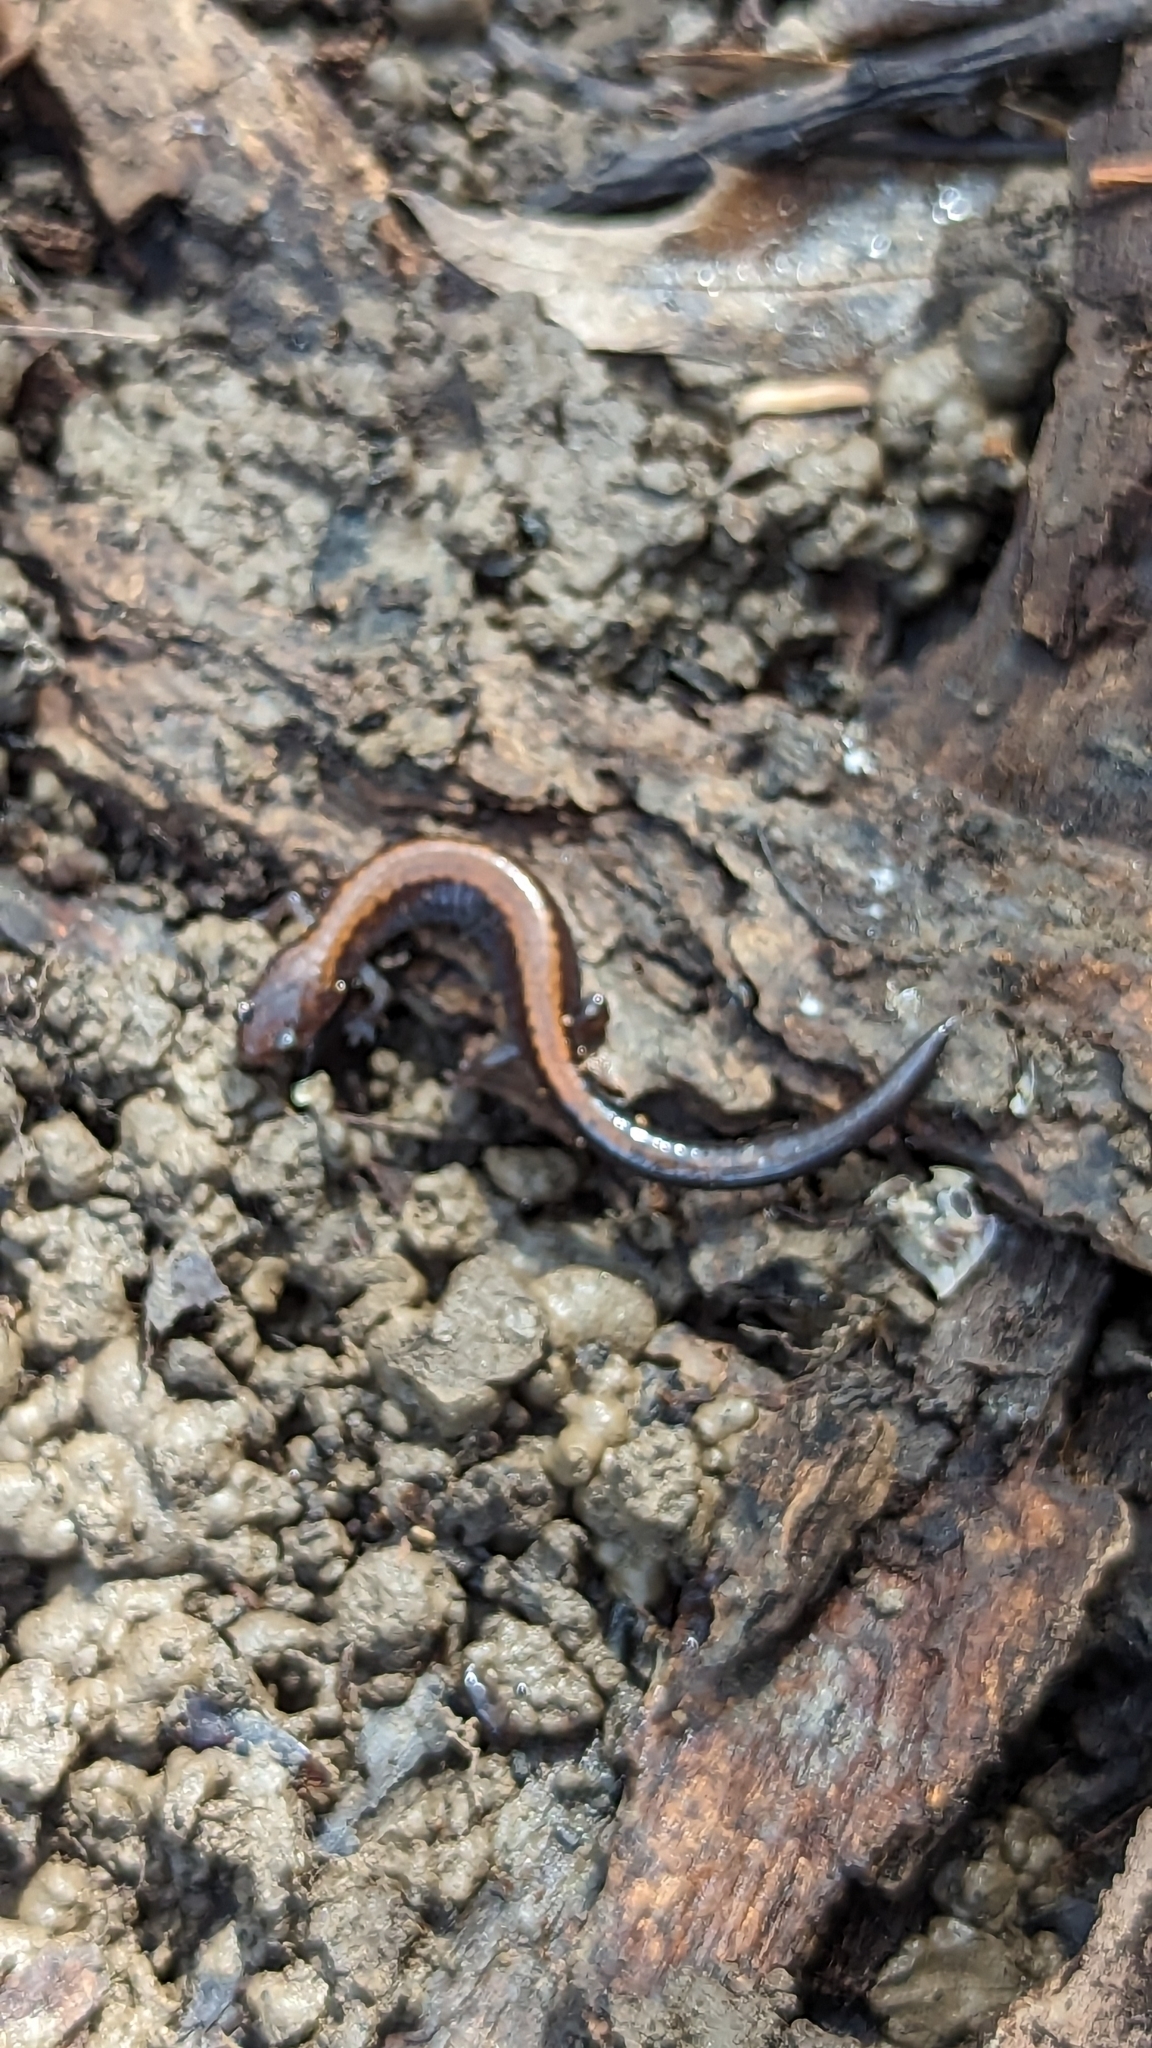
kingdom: Animalia
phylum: Chordata
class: Amphibia
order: Caudata
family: Plethodontidae
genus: Plethodon
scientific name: Plethodon cinereus
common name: Redback salamander
